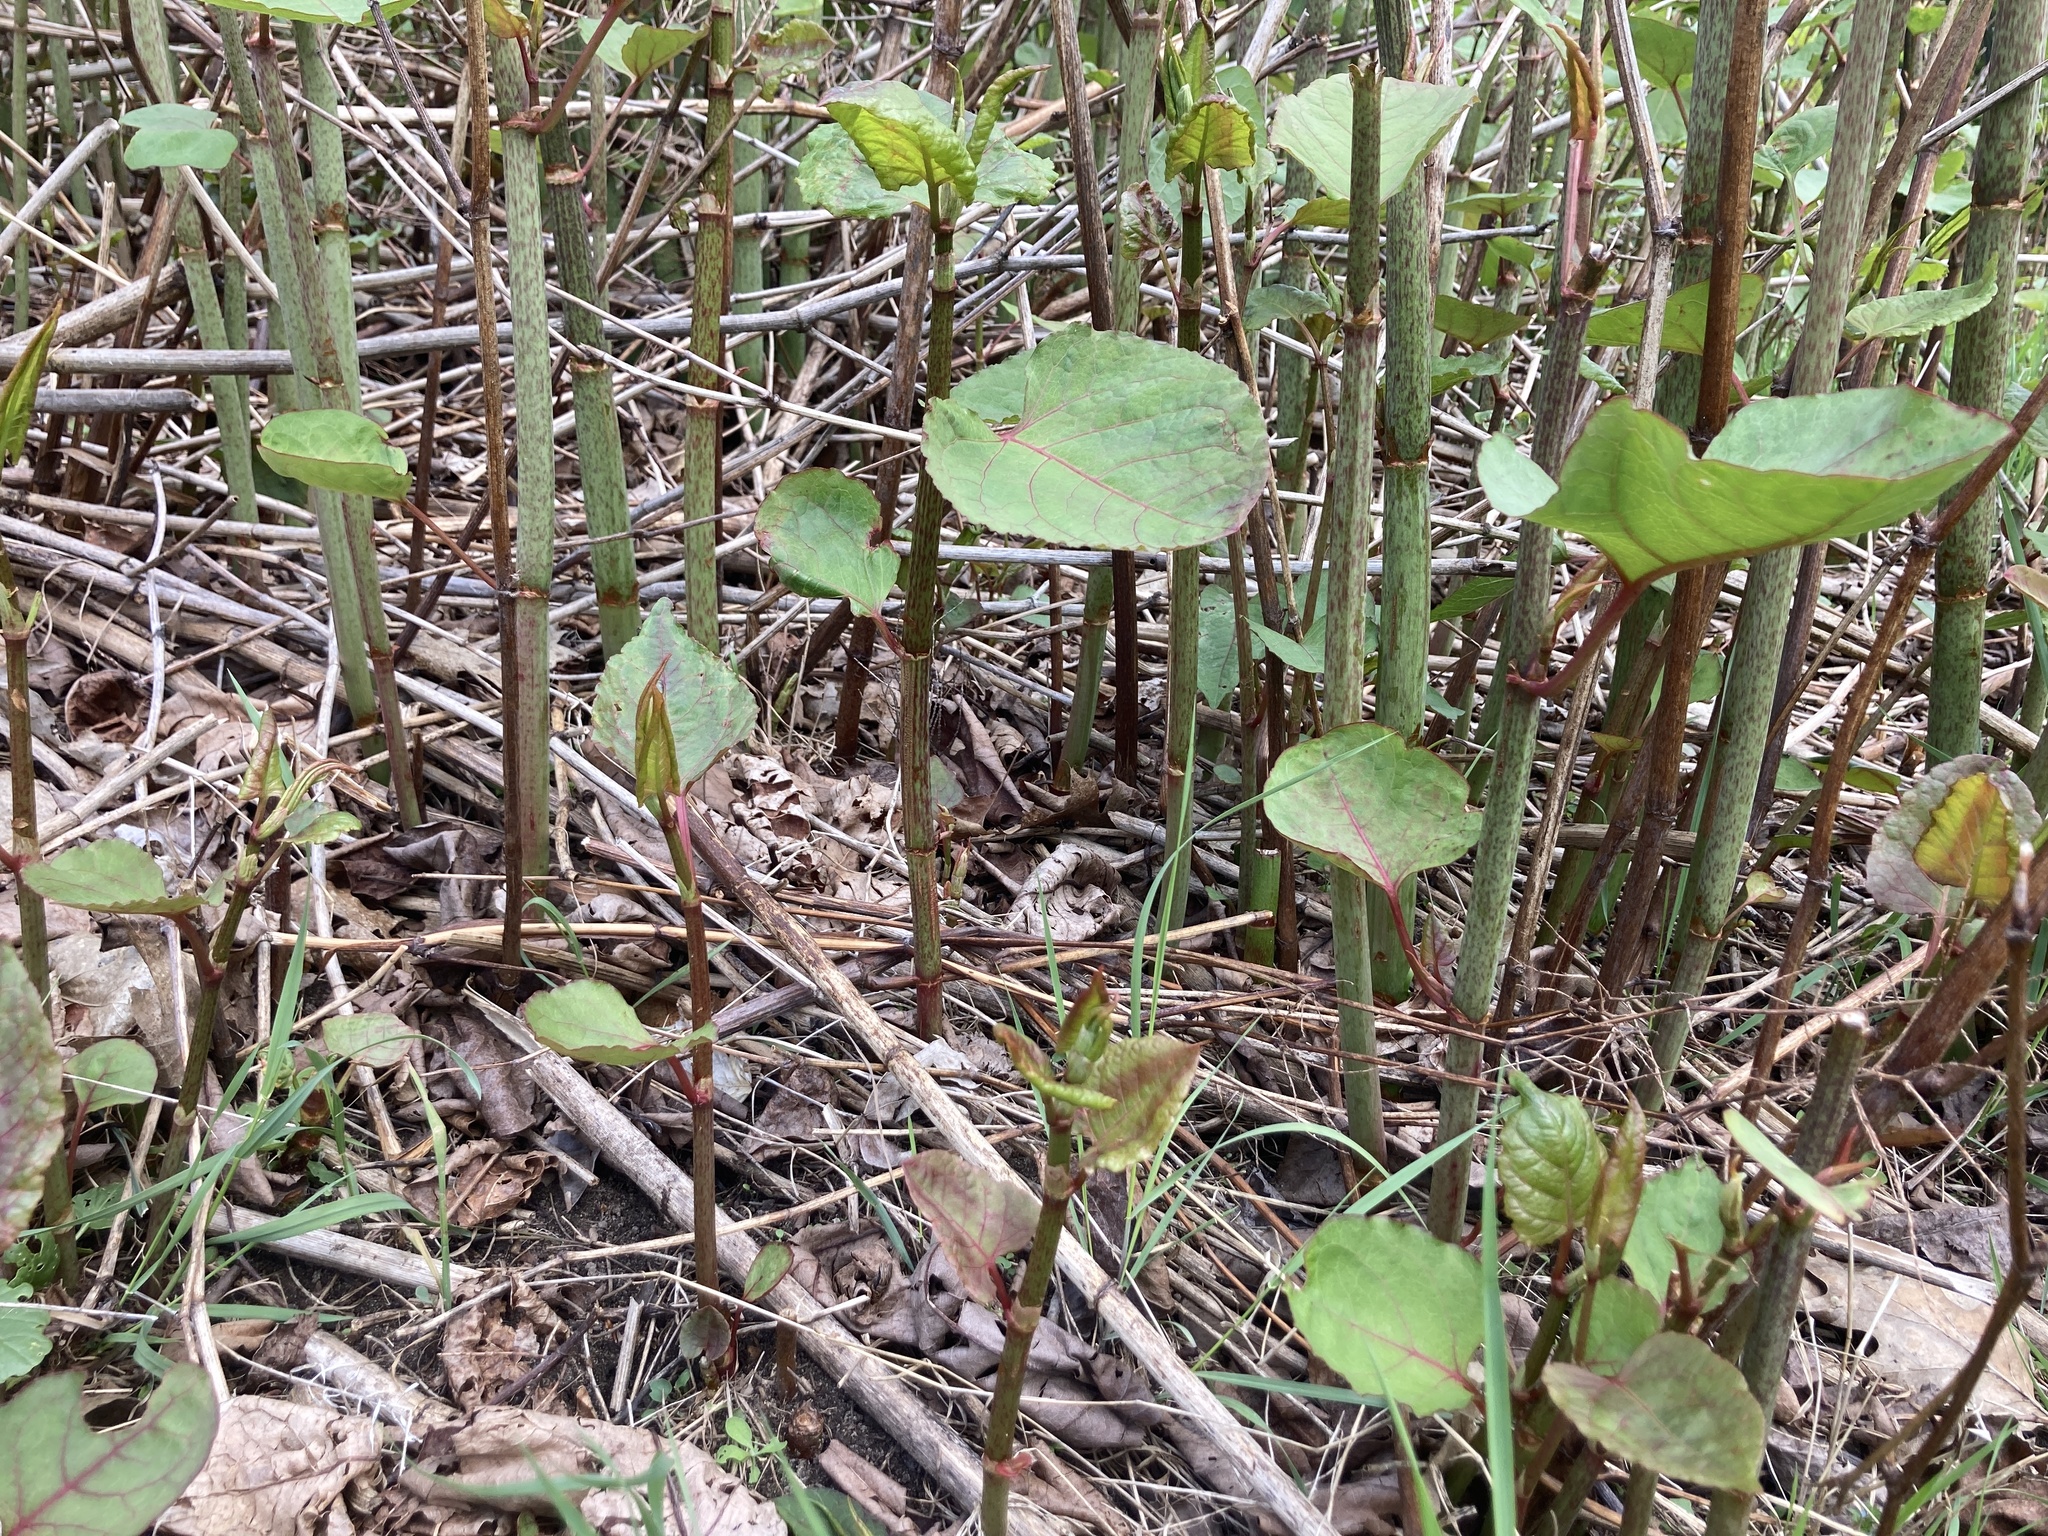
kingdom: Plantae
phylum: Tracheophyta
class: Magnoliopsida
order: Caryophyllales
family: Polygonaceae
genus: Reynoutria
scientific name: Reynoutria japonica
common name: Japanese knotweed
